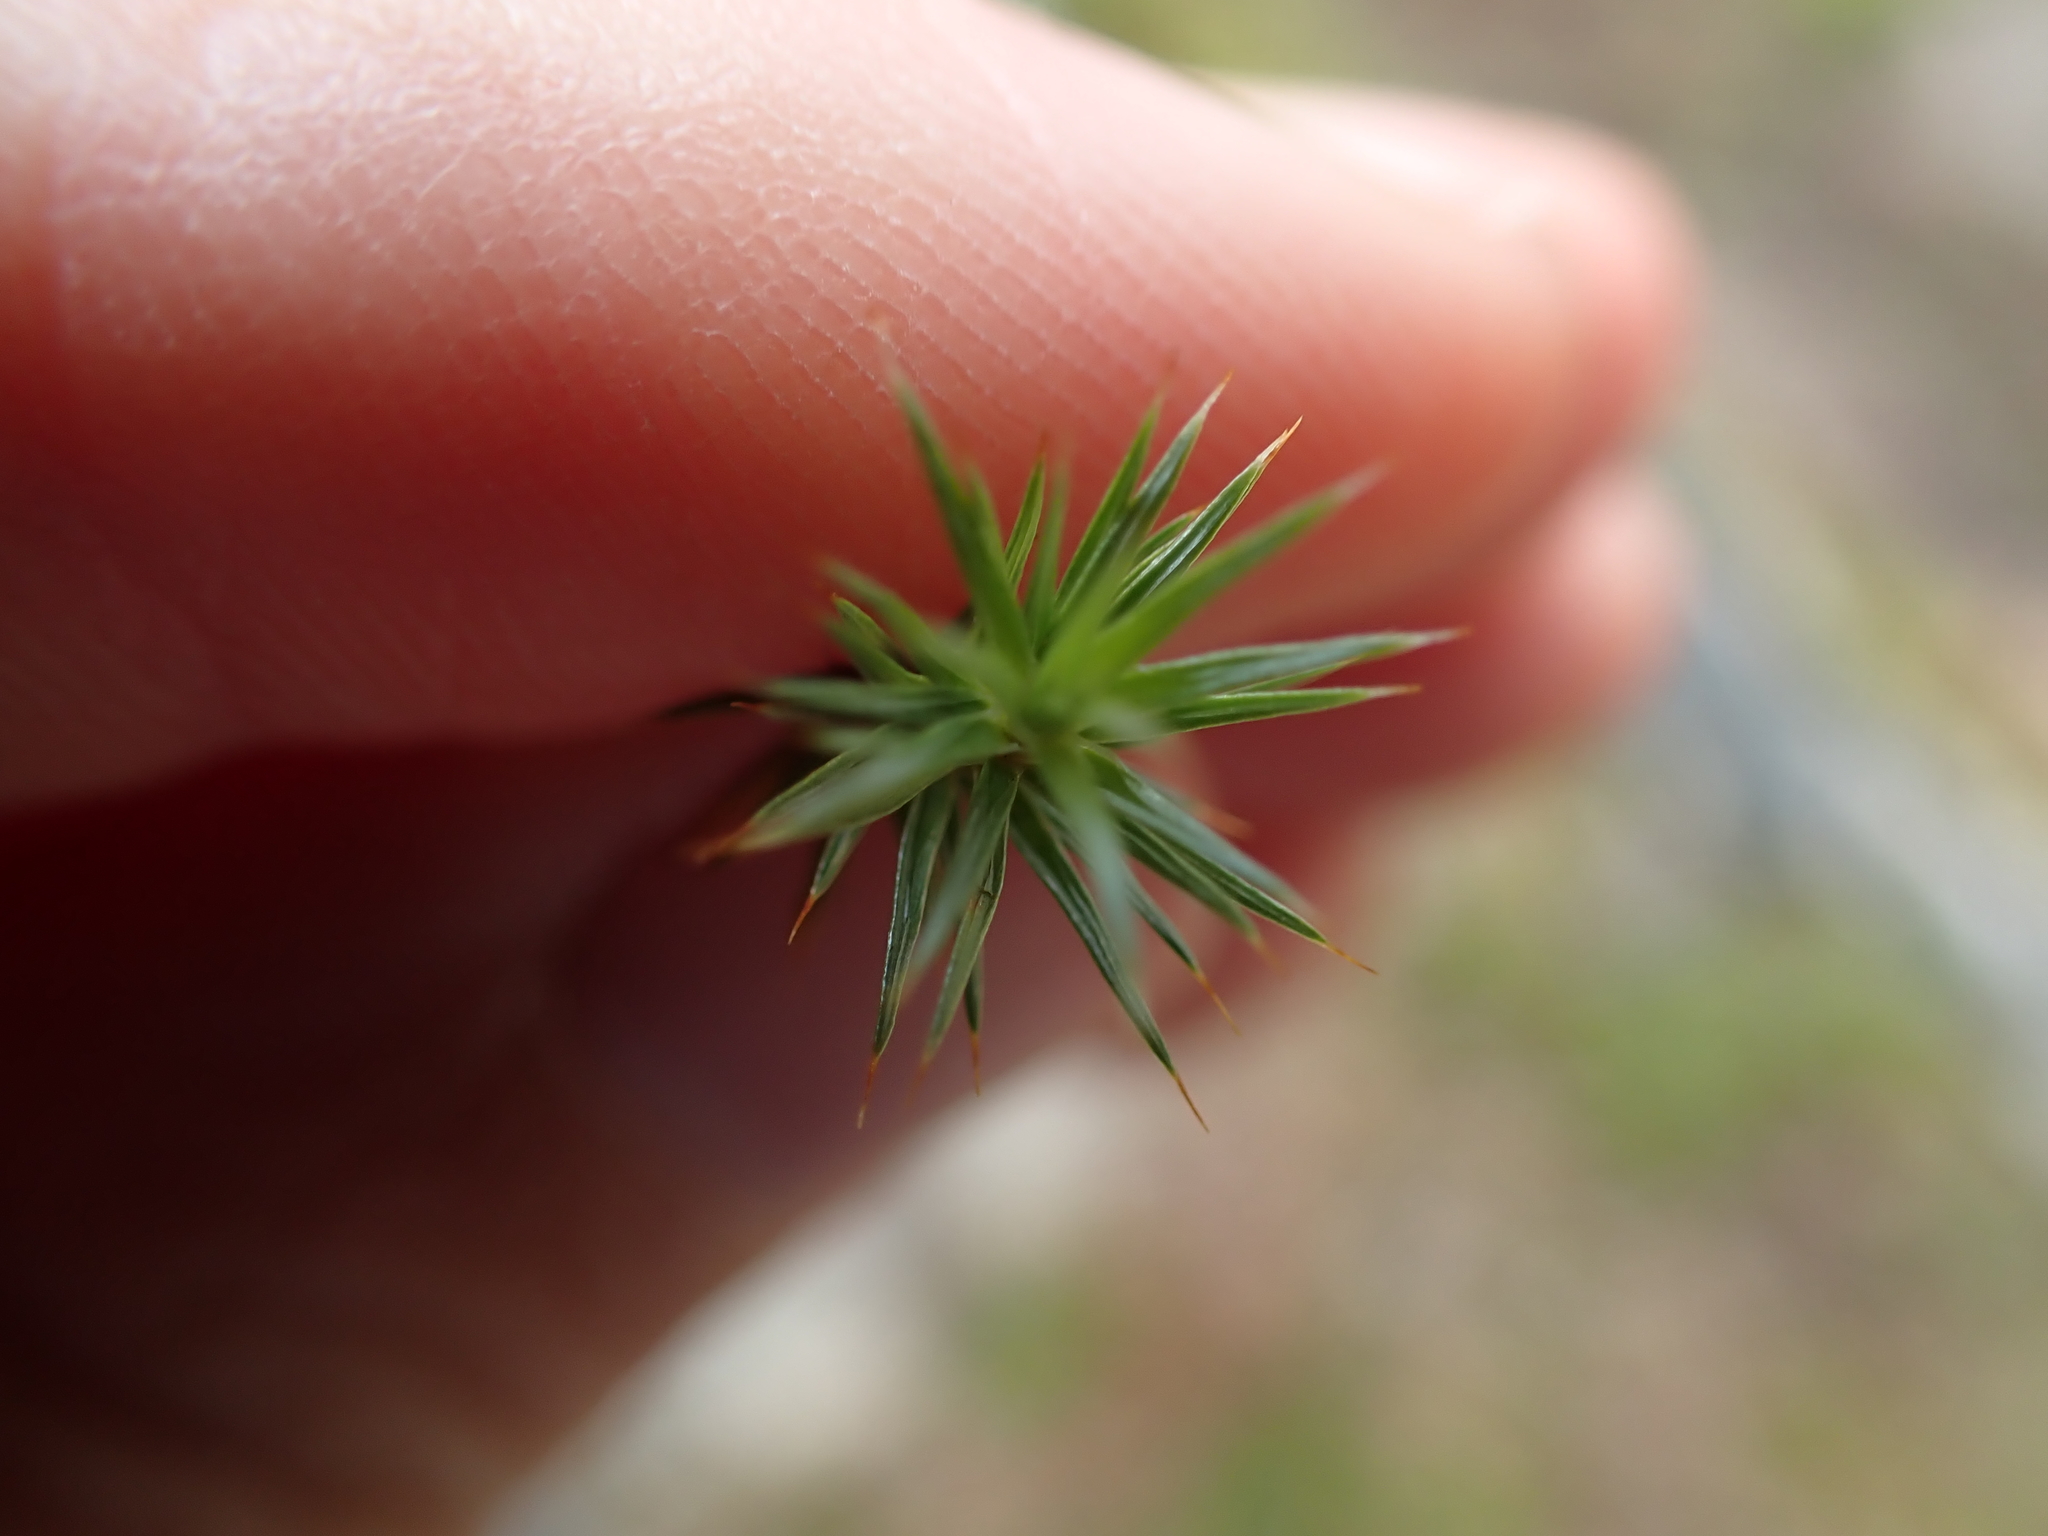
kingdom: Plantae
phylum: Bryophyta
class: Polytrichopsida
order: Polytrichales
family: Polytrichaceae
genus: Polytrichum
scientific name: Polytrichum juniperinum
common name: Juniper haircap moss
